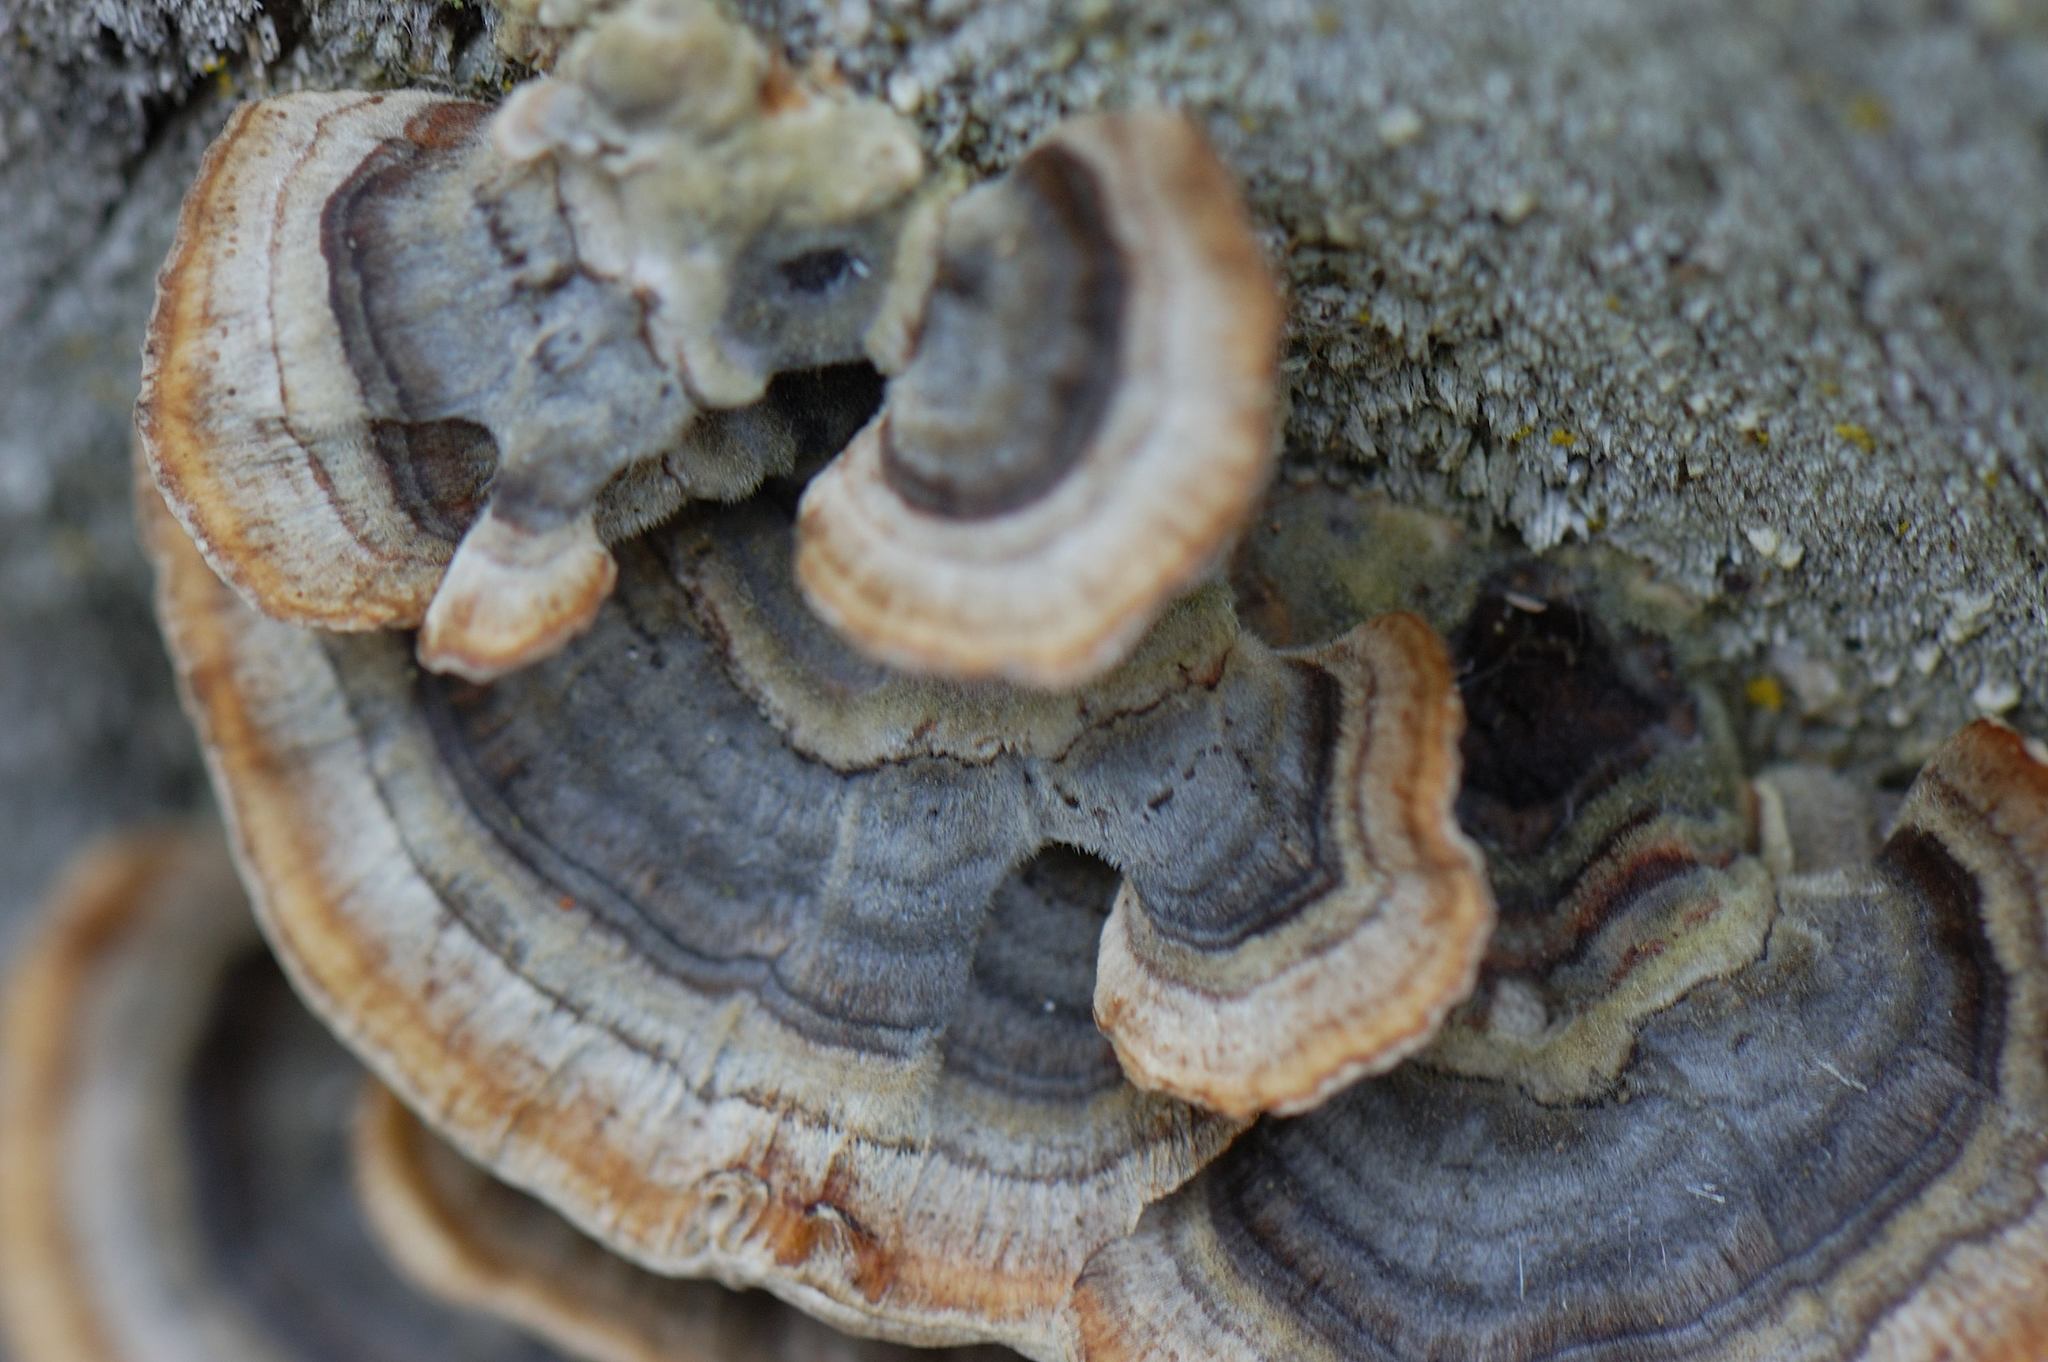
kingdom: Fungi
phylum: Basidiomycota
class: Agaricomycetes
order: Polyporales
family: Polyporaceae
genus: Trametes
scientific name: Trametes versicolor
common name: Turkeytail
